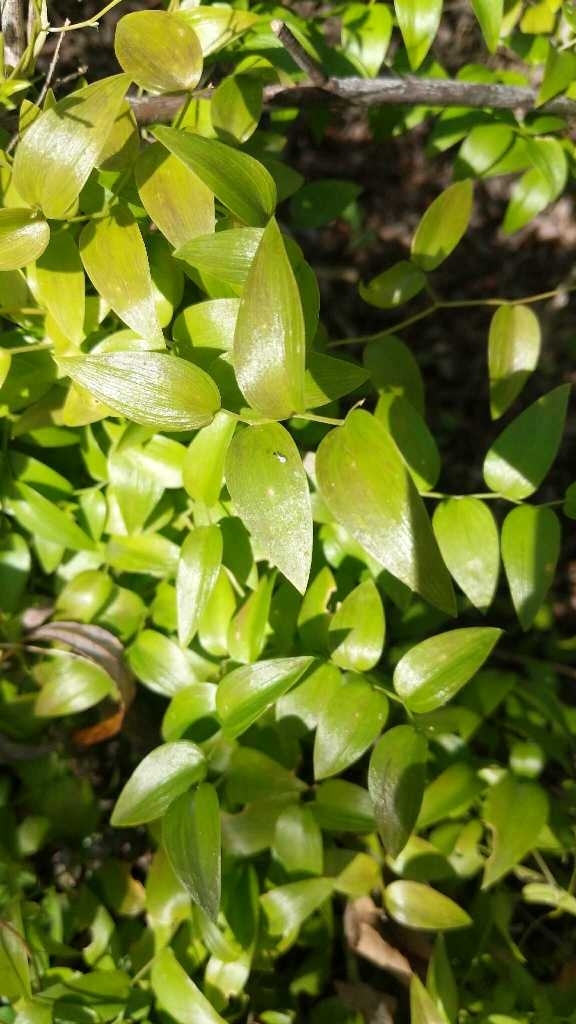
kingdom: Plantae
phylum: Tracheophyta
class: Liliopsida
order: Asparagales
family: Asparagaceae
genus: Asparagus
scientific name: Asparagus asparagoides
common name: African asparagus fern
